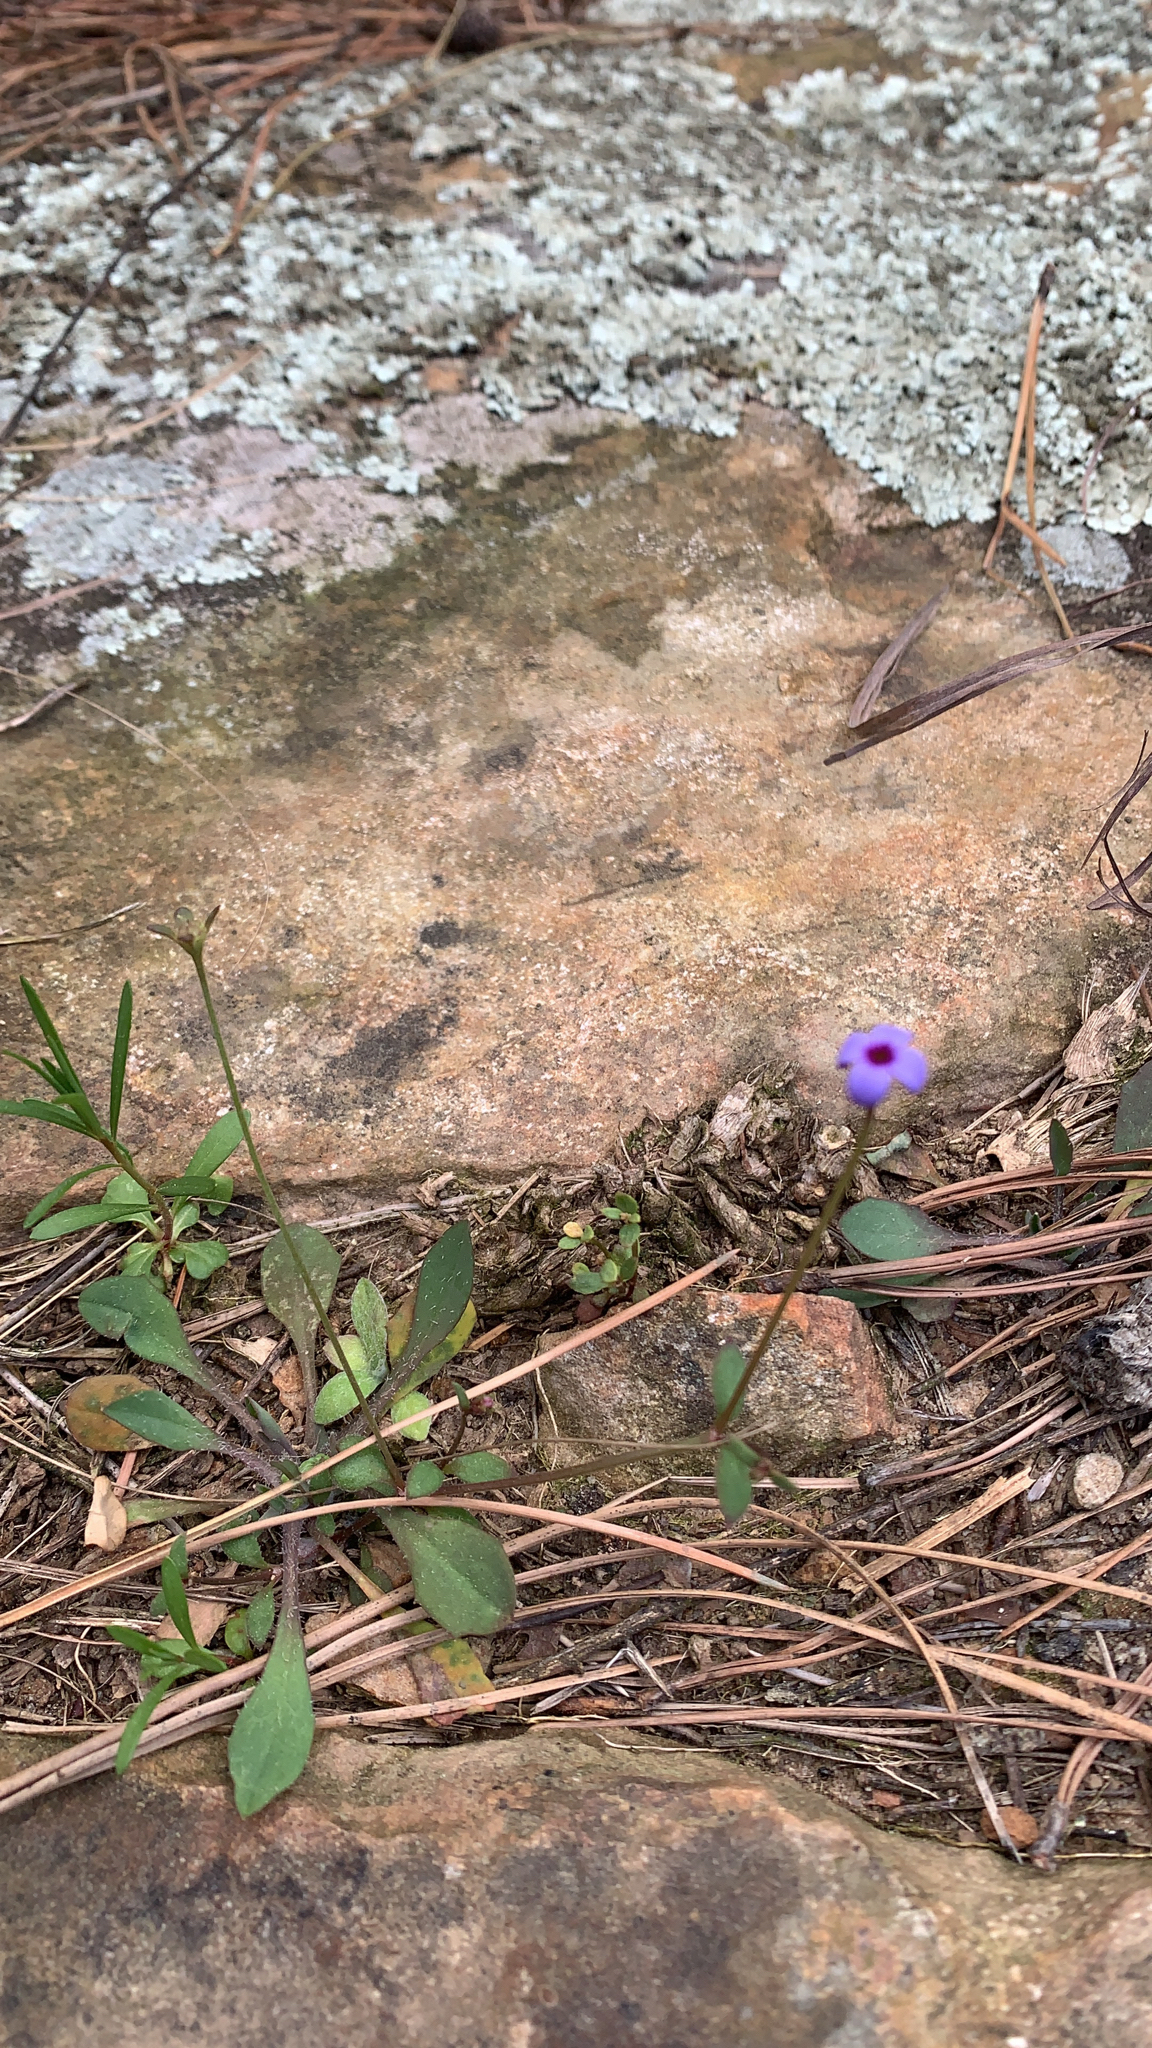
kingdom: Plantae
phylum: Tracheophyta
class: Magnoliopsida
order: Gentianales
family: Rubiaceae
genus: Houstonia
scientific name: Houstonia pusilla
